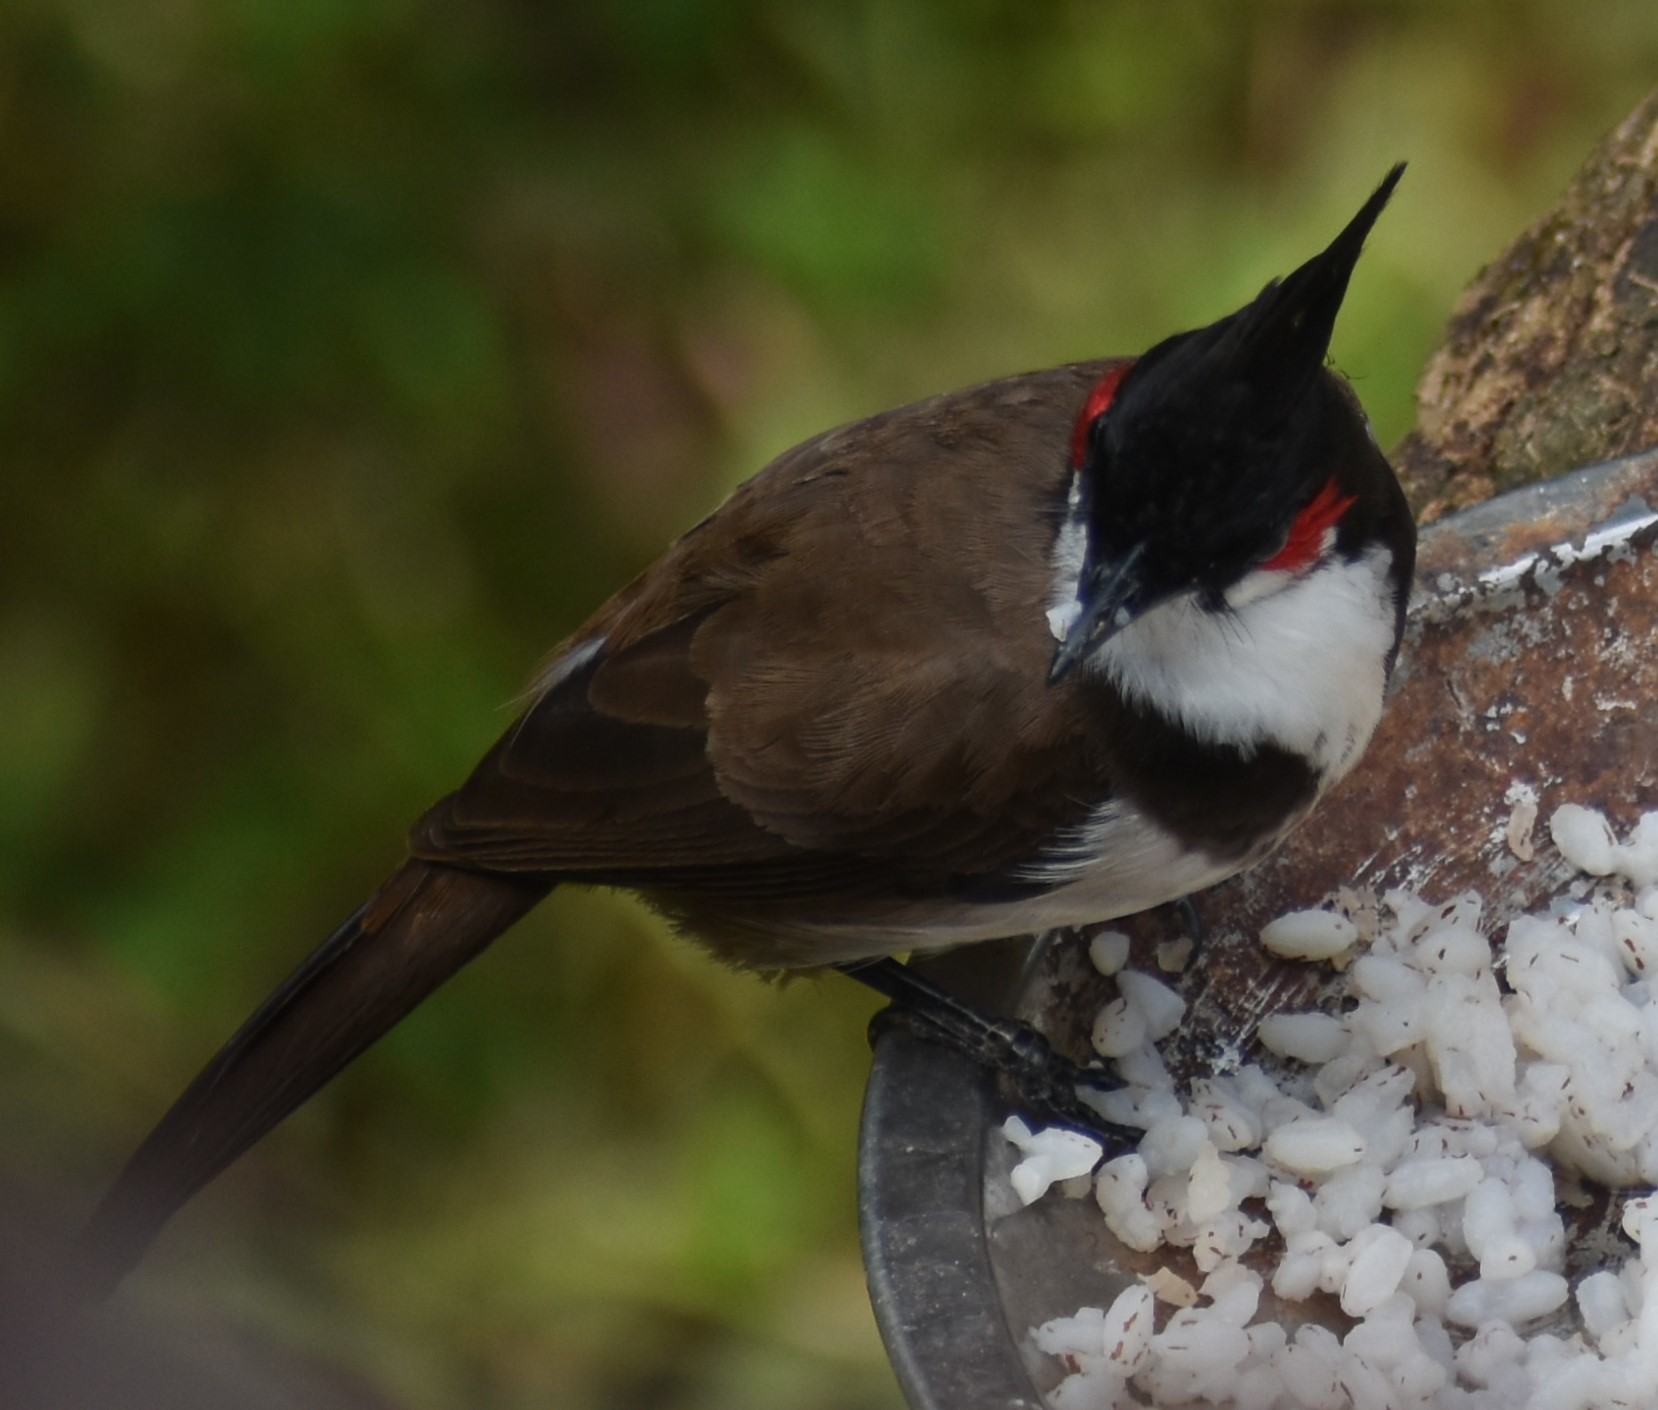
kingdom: Animalia
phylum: Chordata
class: Aves
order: Passeriformes
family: Pycnonotidae
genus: Pycnonotus
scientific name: Pycnonotus jocosus
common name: Red-whiskered bulbul
